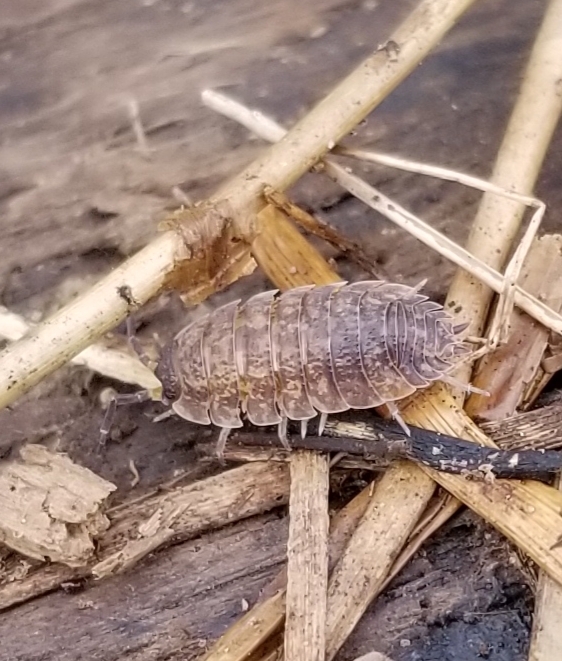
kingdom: Animalia
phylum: Arthropoda
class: Malacostraca
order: Isopoda
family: Porcellionidae
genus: Porcellio
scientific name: Porcellio scaber
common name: Common rough woodlouse
